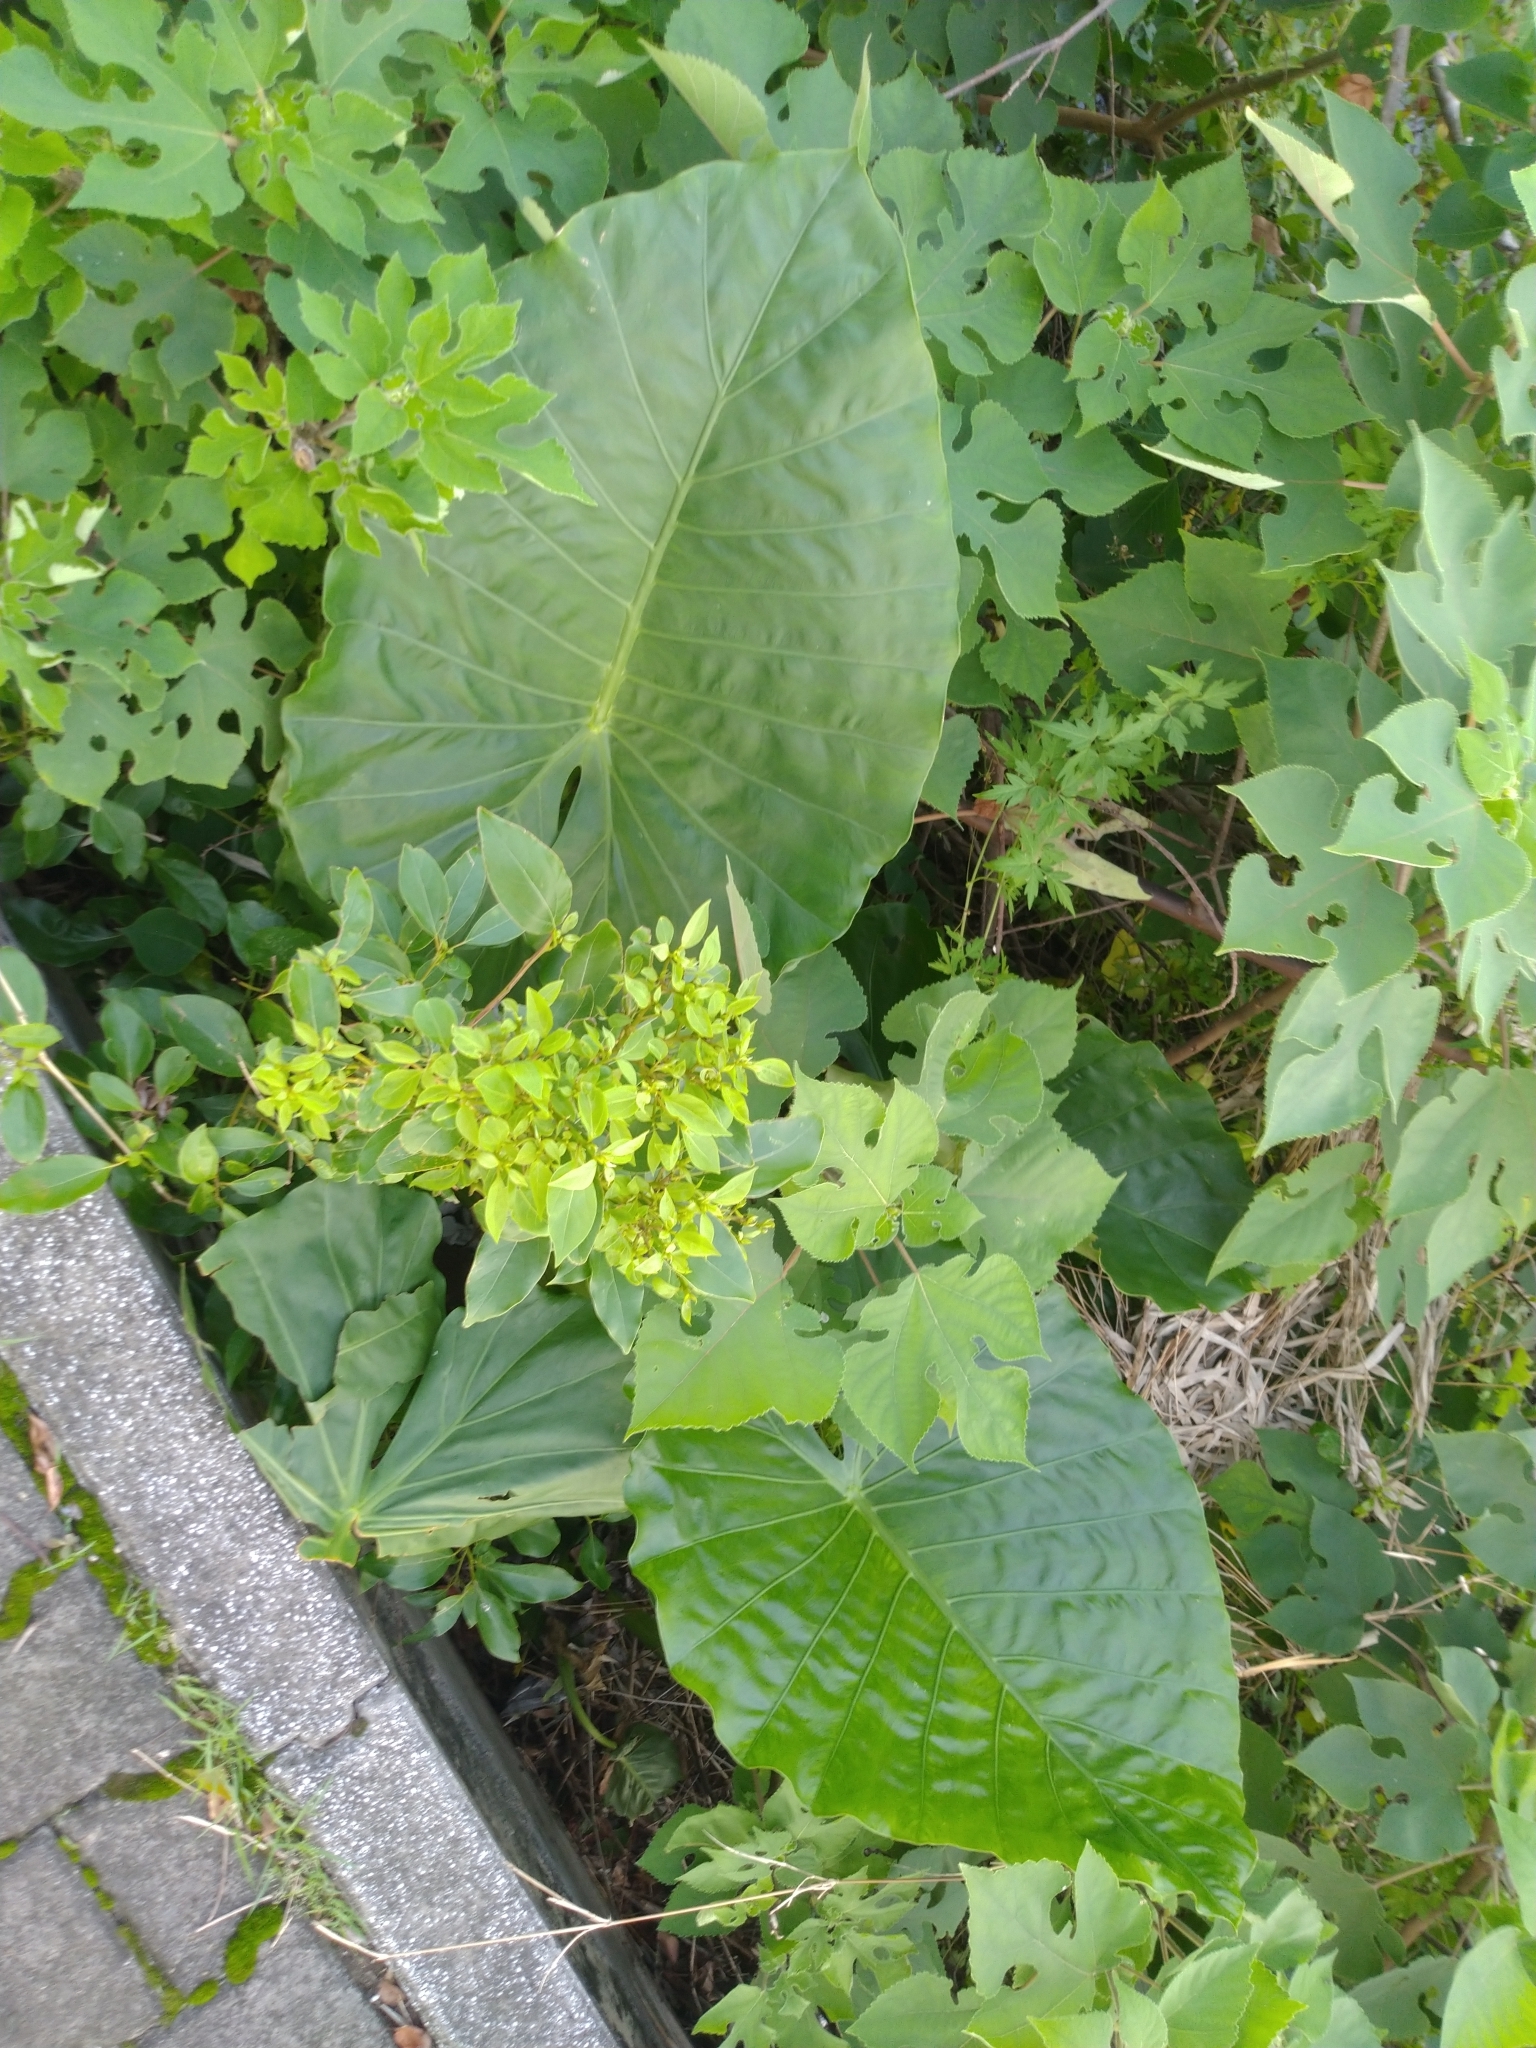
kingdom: Plantae
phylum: Tracheophyta
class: Liliopsida
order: Alismatales
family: Araceae
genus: Alocasia
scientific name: Alocasia odora
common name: Asian taro
